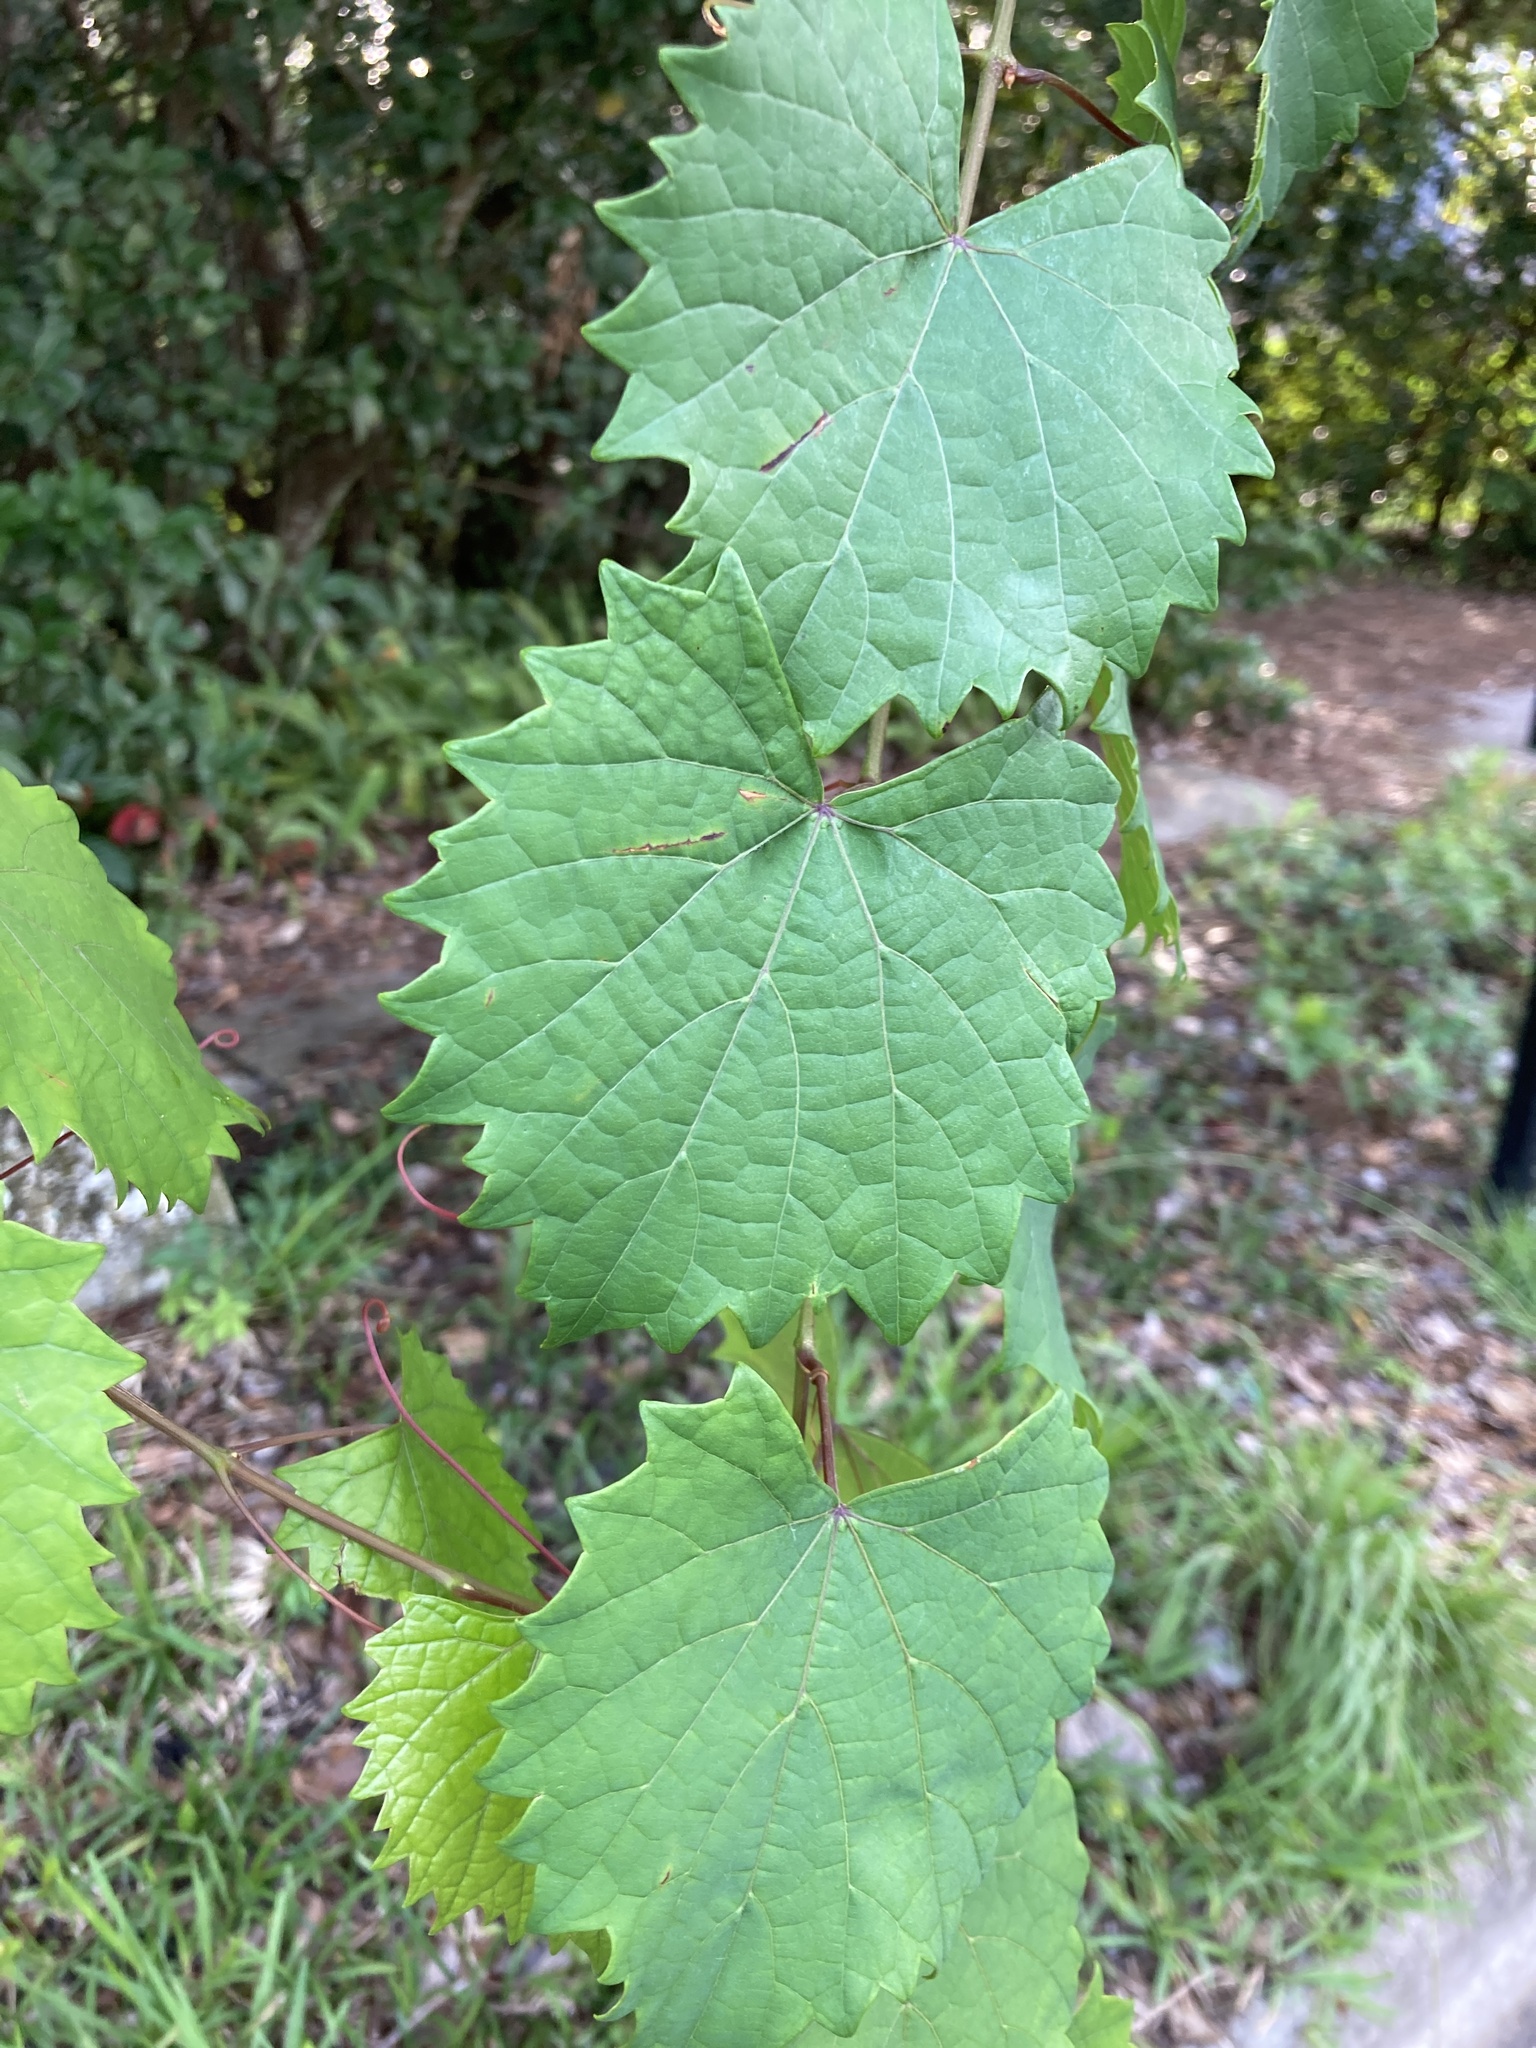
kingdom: Plantae
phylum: Tracheophyta
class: Magnoliopsida
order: Vitales
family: Vitaceae
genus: Vitis
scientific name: Vitis rotundifolia
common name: Muscadine grape
